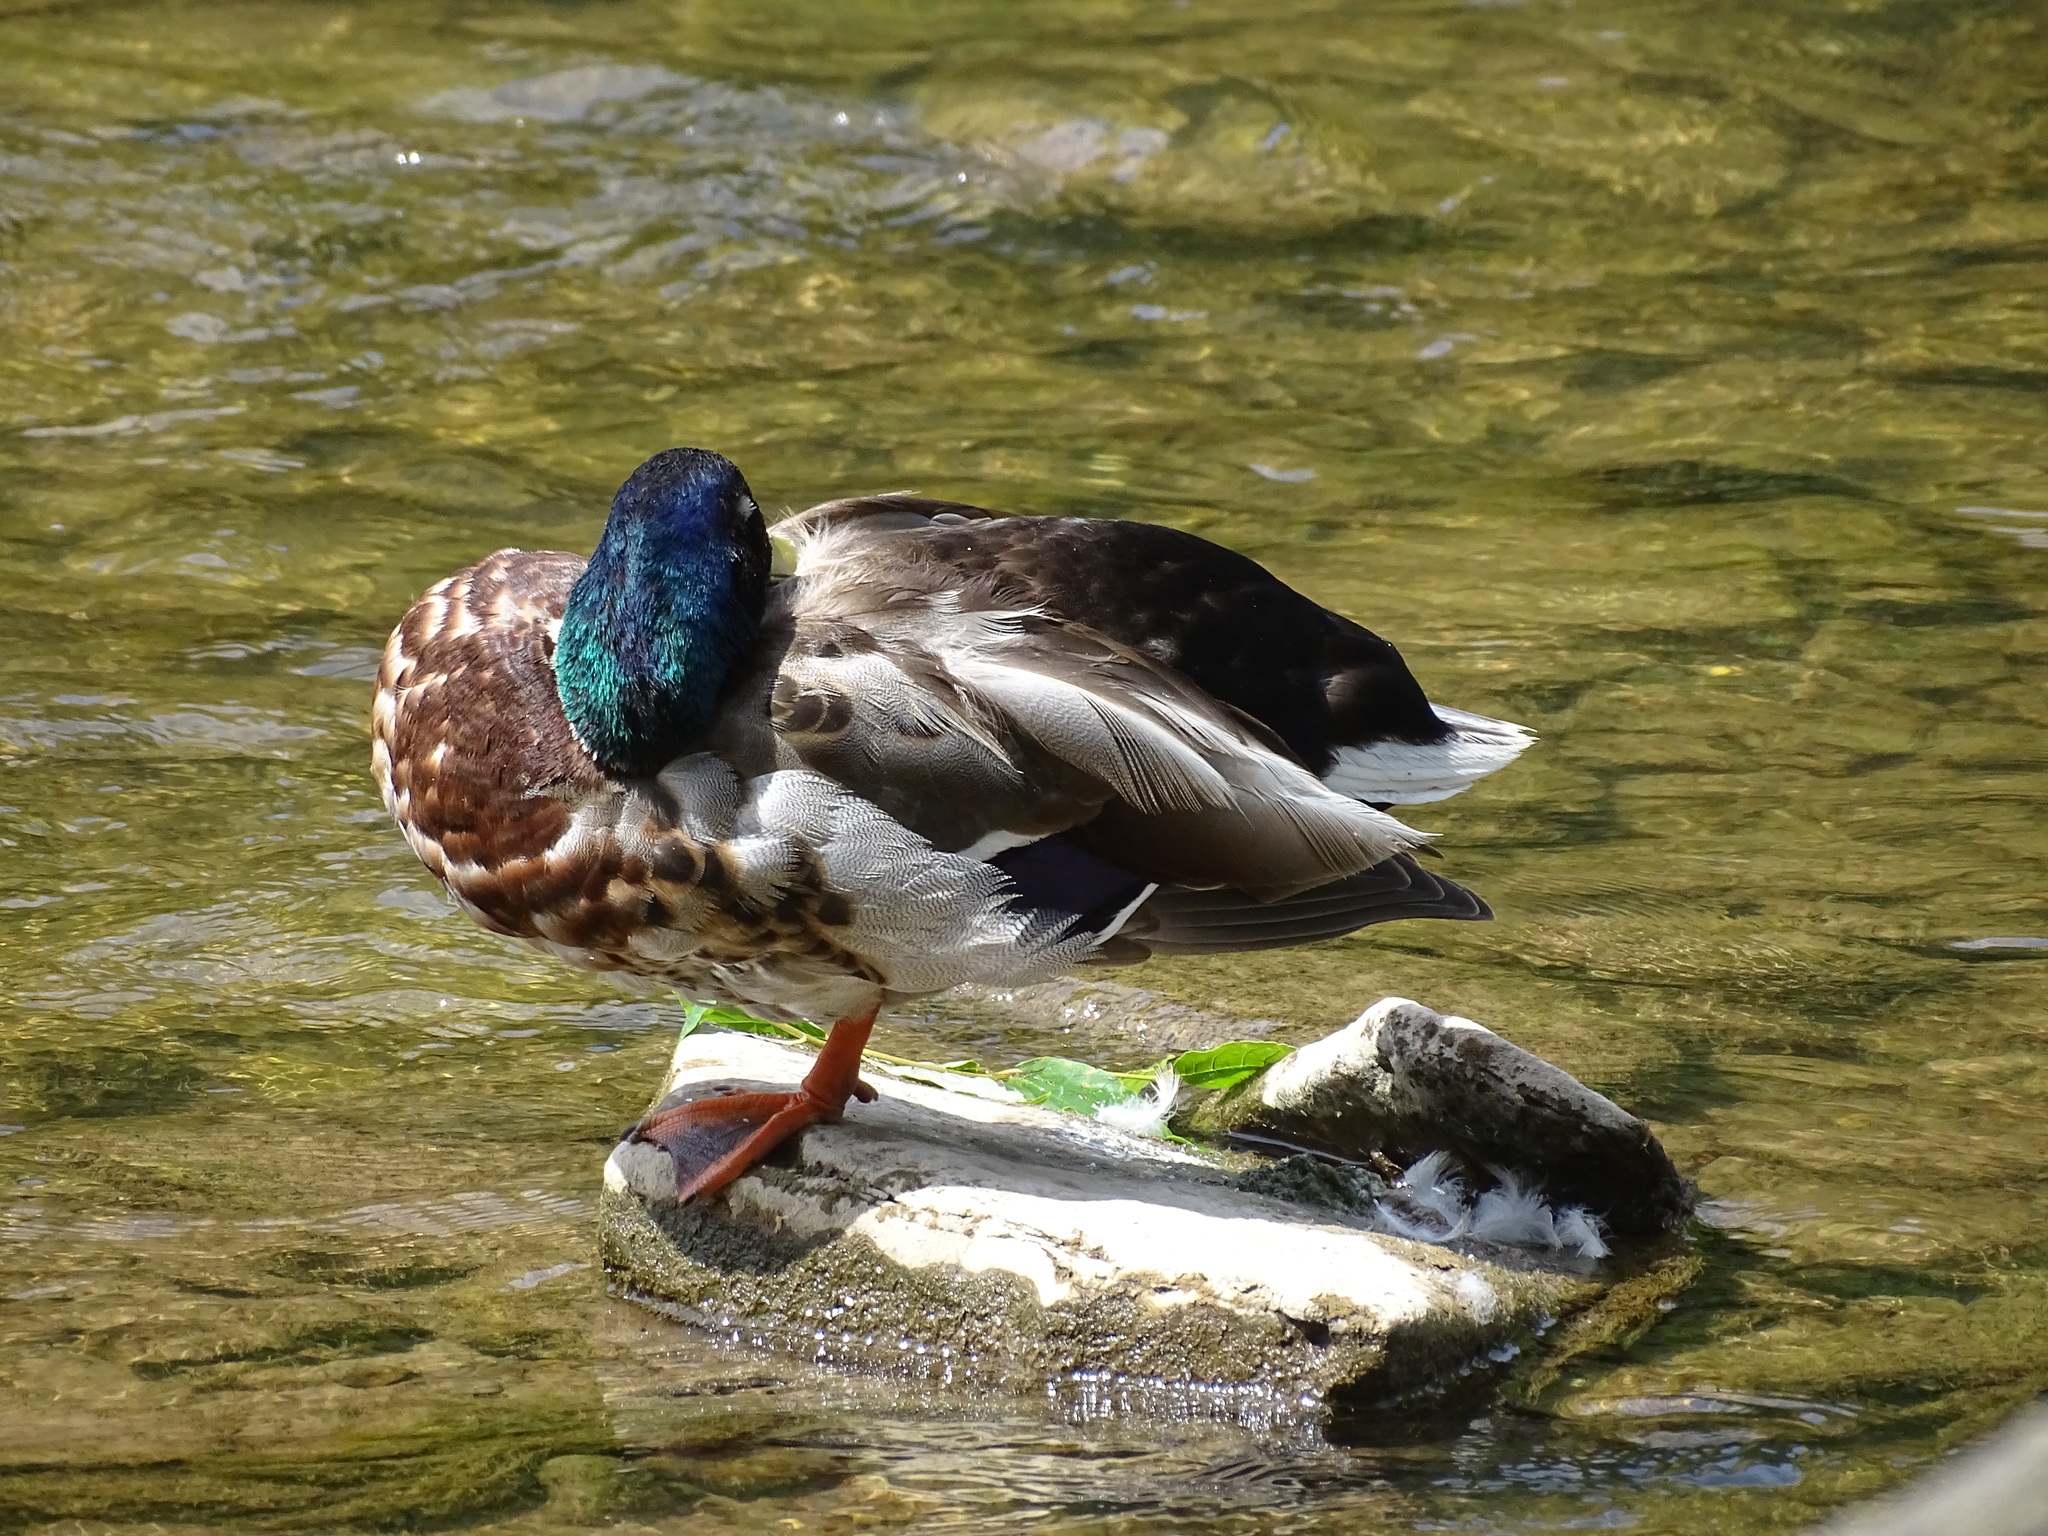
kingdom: Animalia
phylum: Chordata
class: Aves
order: Anseriformes
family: Anatidae
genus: Anas
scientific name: Anas platyrhynchos
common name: Mallard
